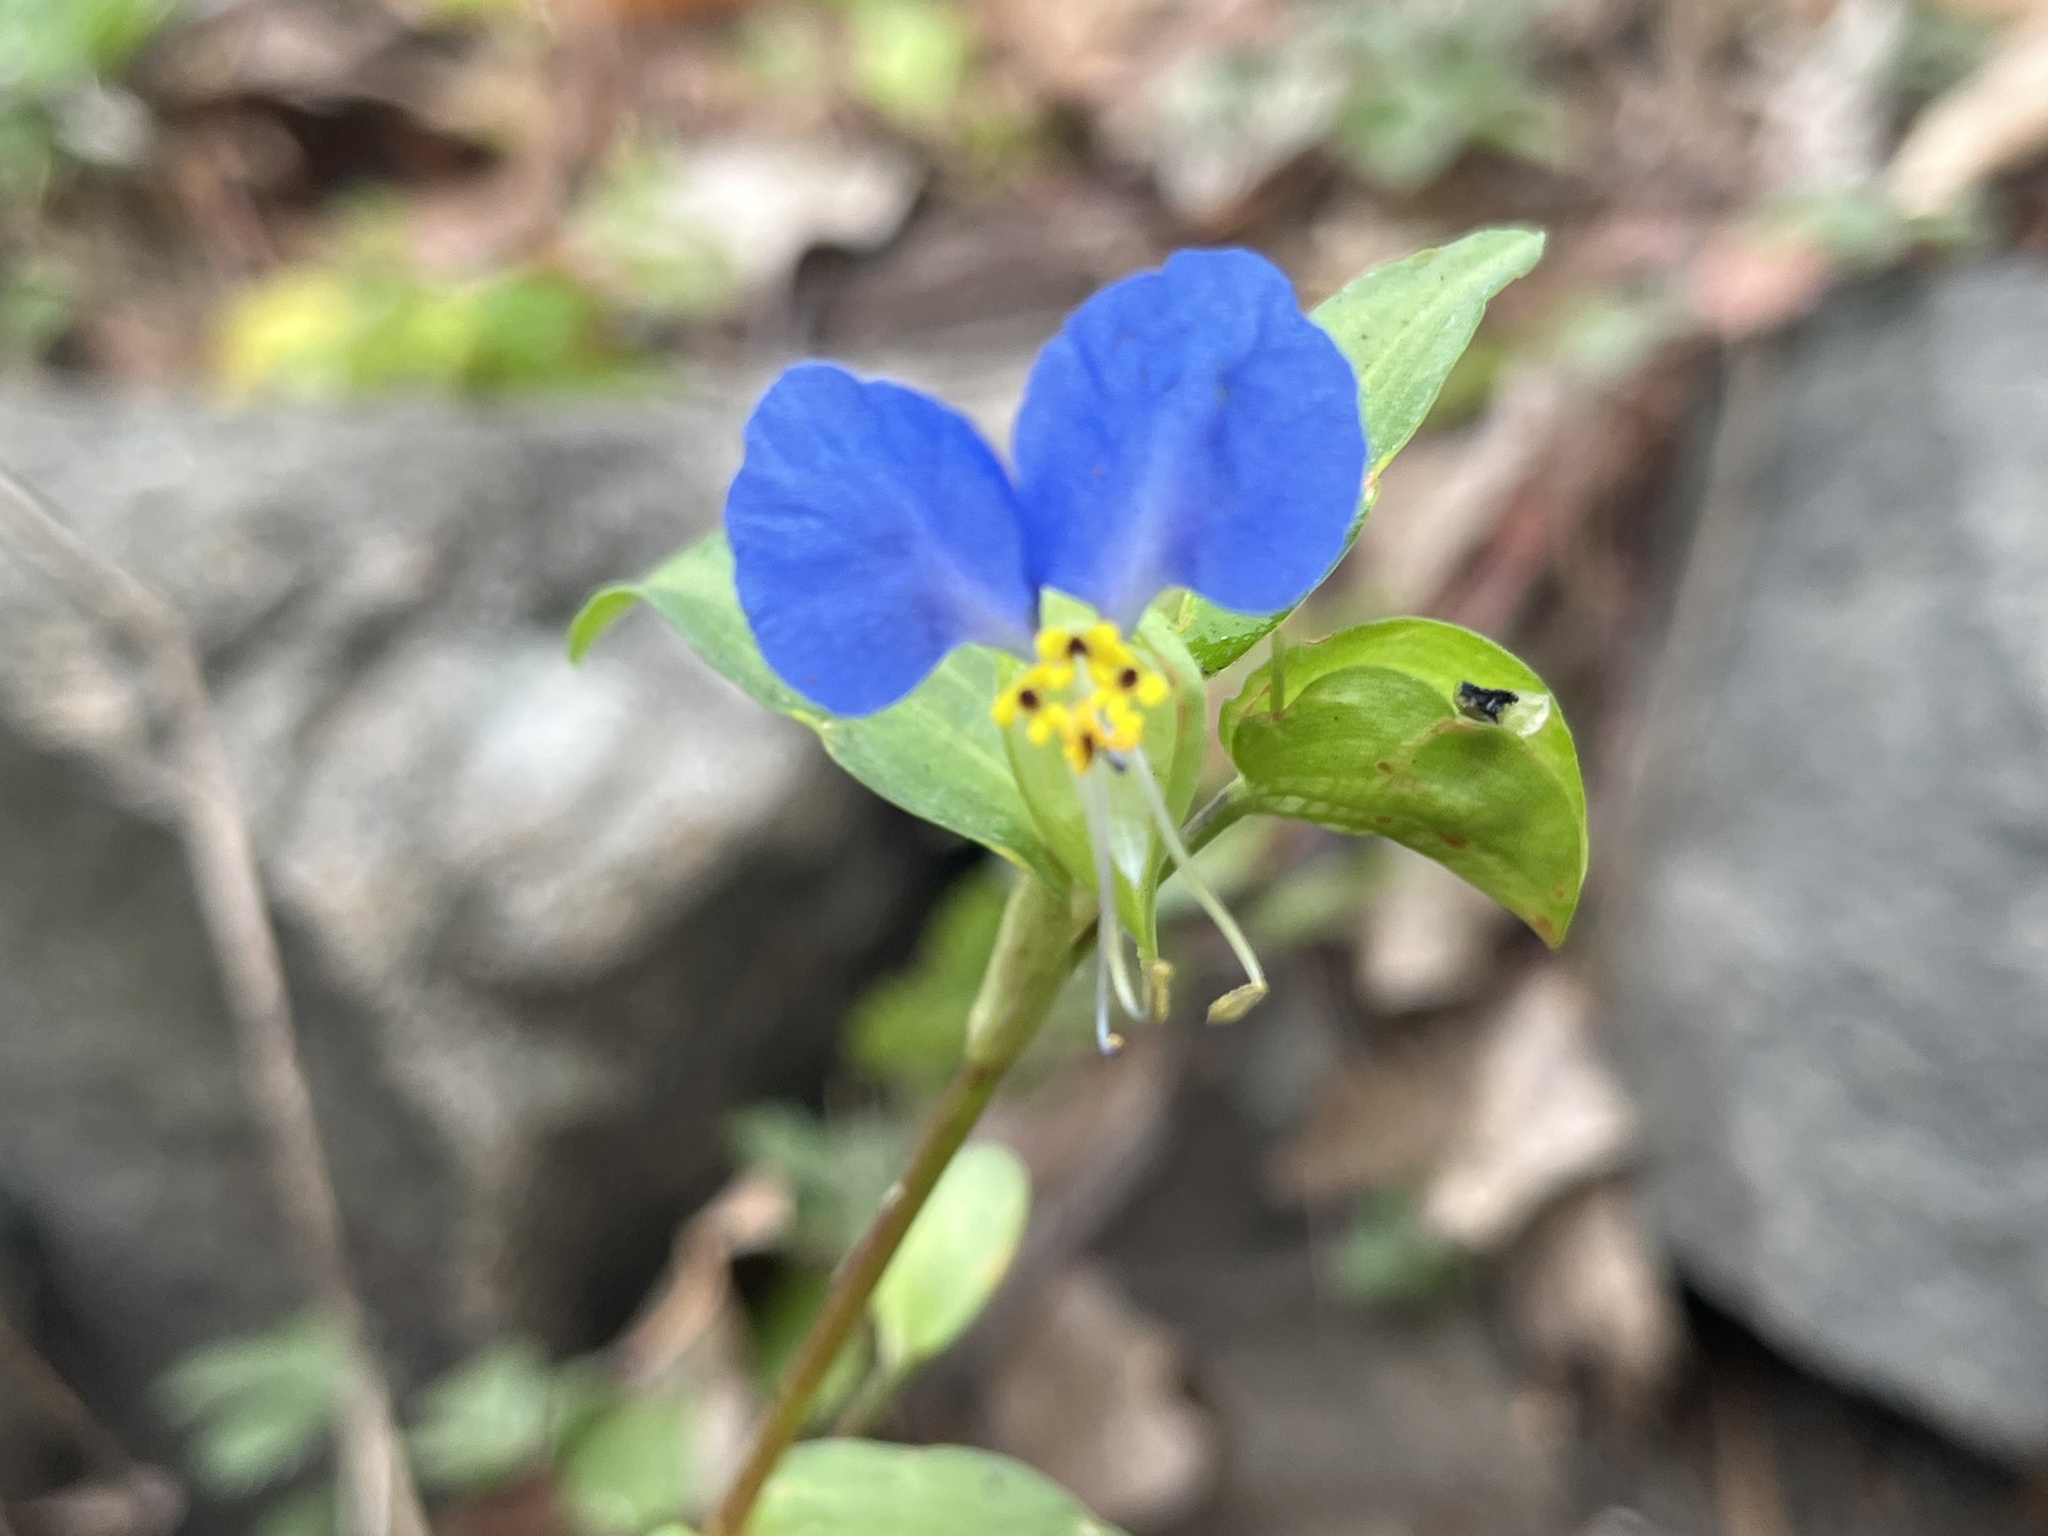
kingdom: Plantae
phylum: Tracheophyta
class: Liliopsida
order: Commelinales
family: Commelinaceae
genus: Commelina
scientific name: Commelina communis
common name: Asiatic dayflower
